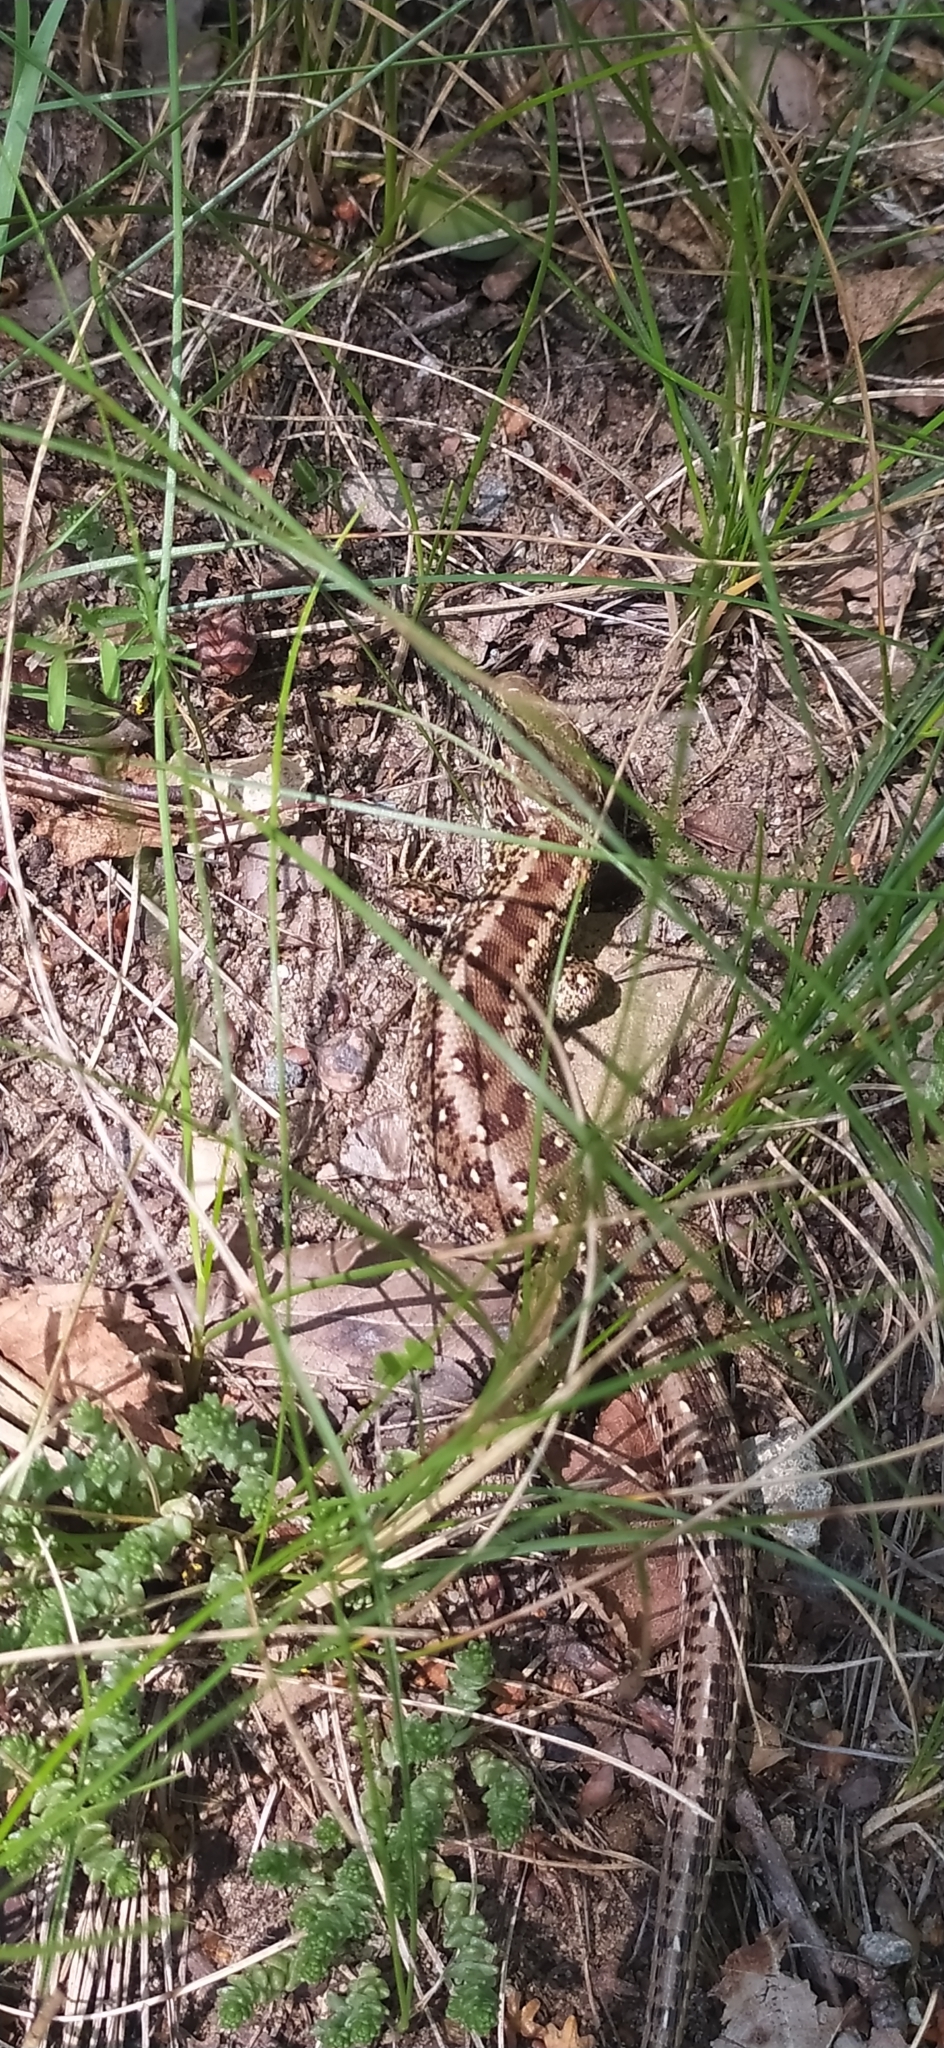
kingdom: Animalia
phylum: Chordata
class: Squamata
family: Lacertidae
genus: Lacerta
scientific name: Lacerta agilis
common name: Sand lizard
